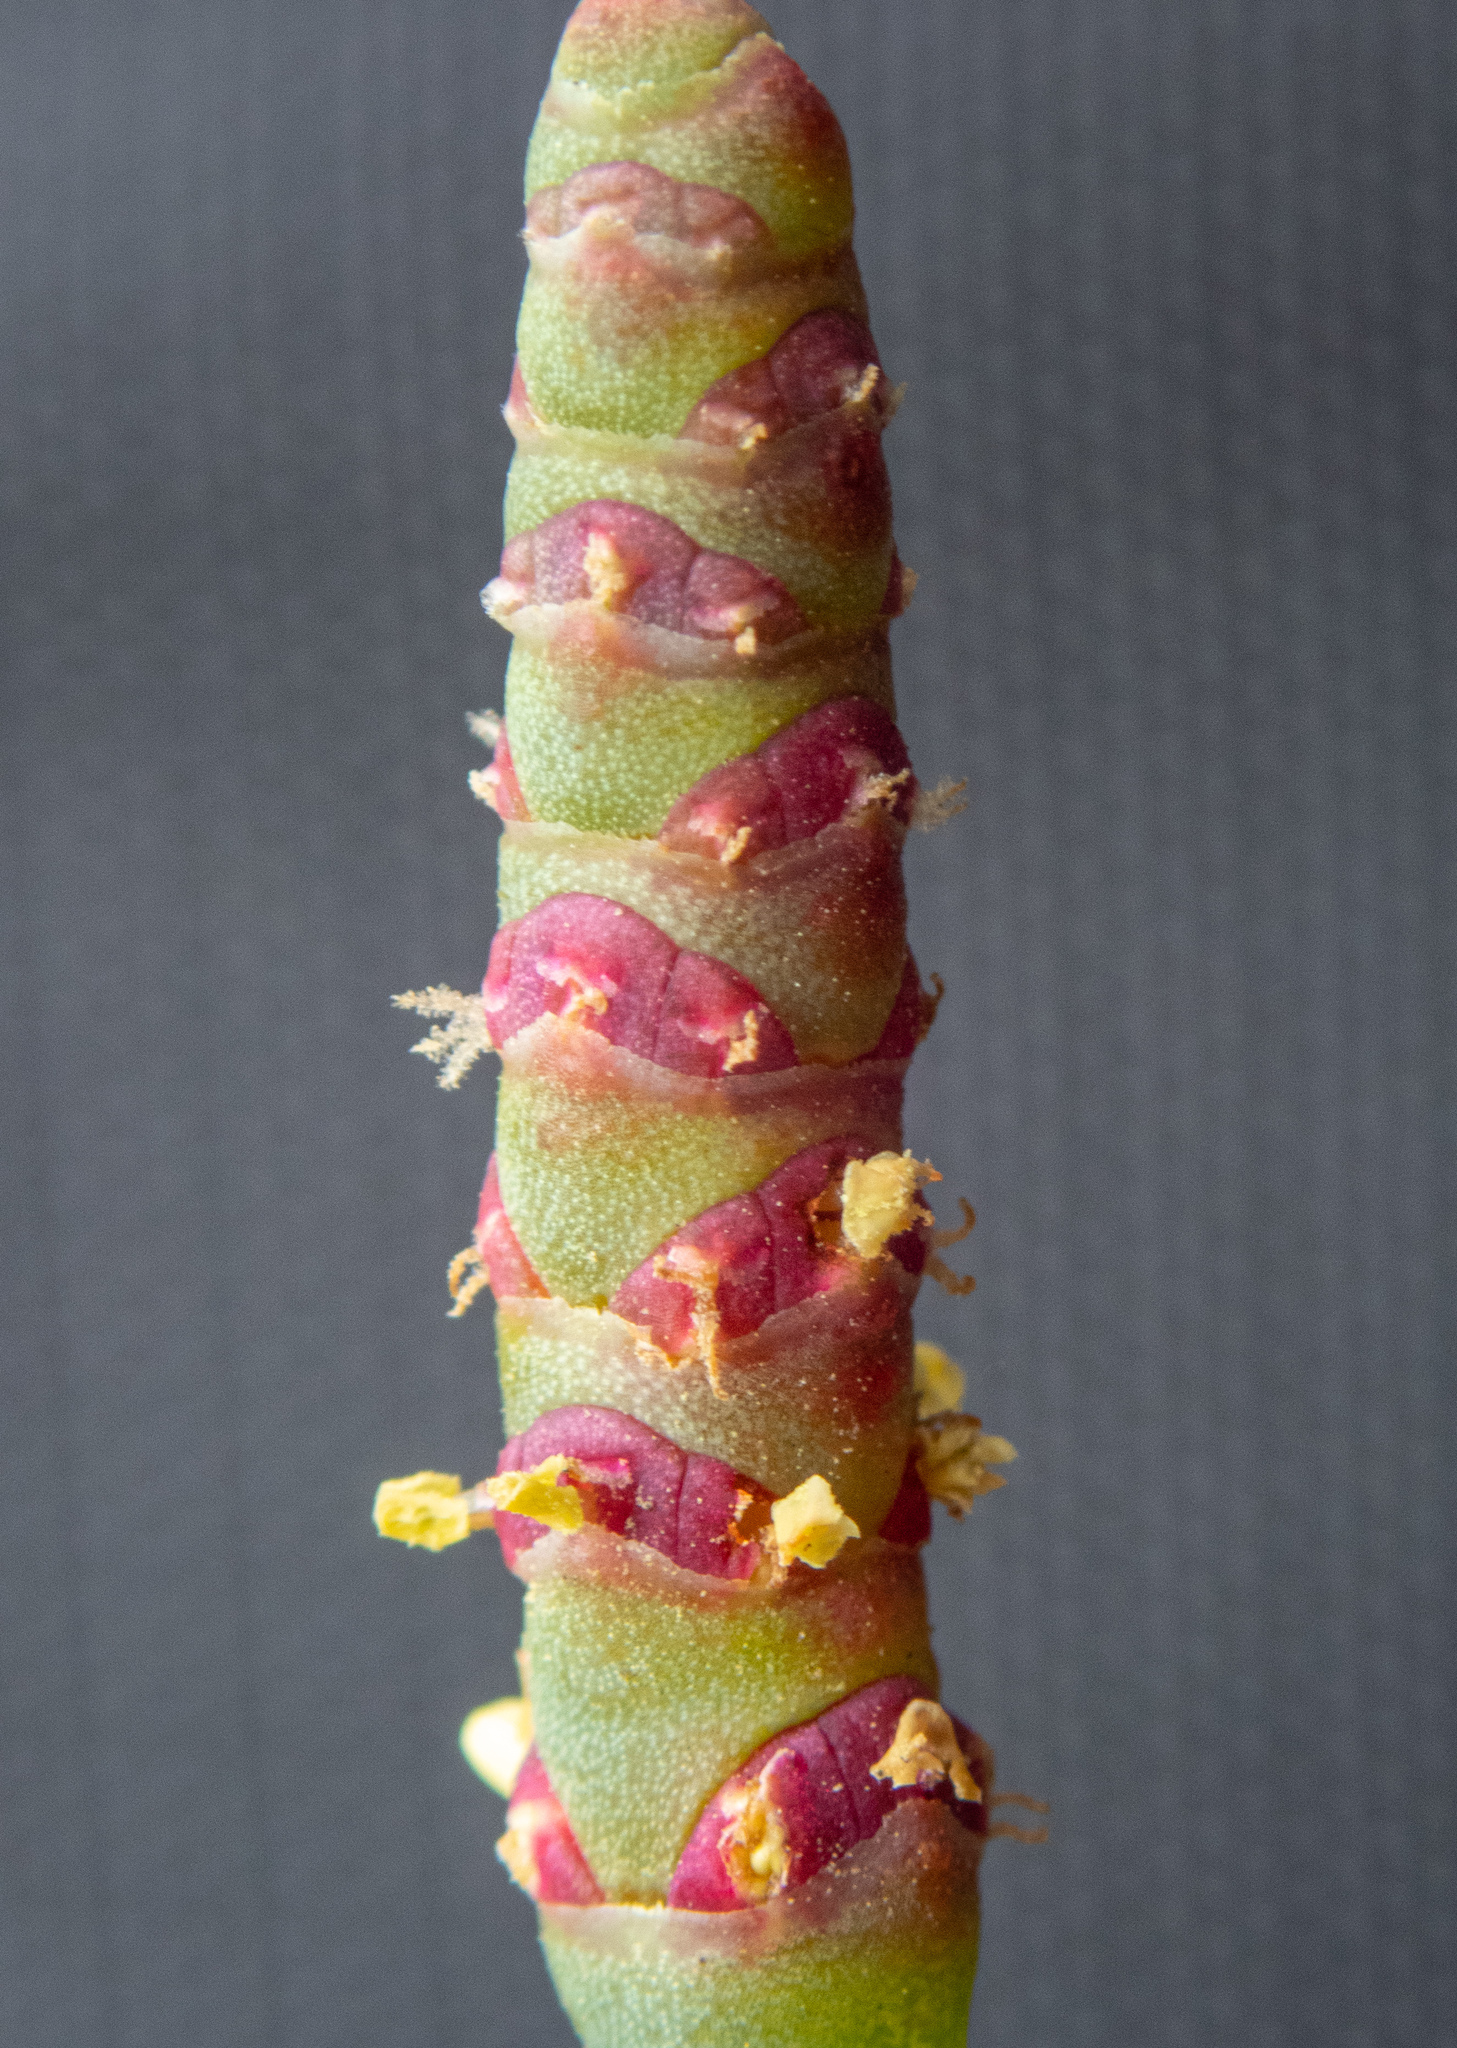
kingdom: Plantae
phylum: Tracheophyta
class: Magnoliopsida
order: Caryophyllales
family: Amaranthaceae
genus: Salicornia
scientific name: Salicornia pacifica
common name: Pacific glasswort
